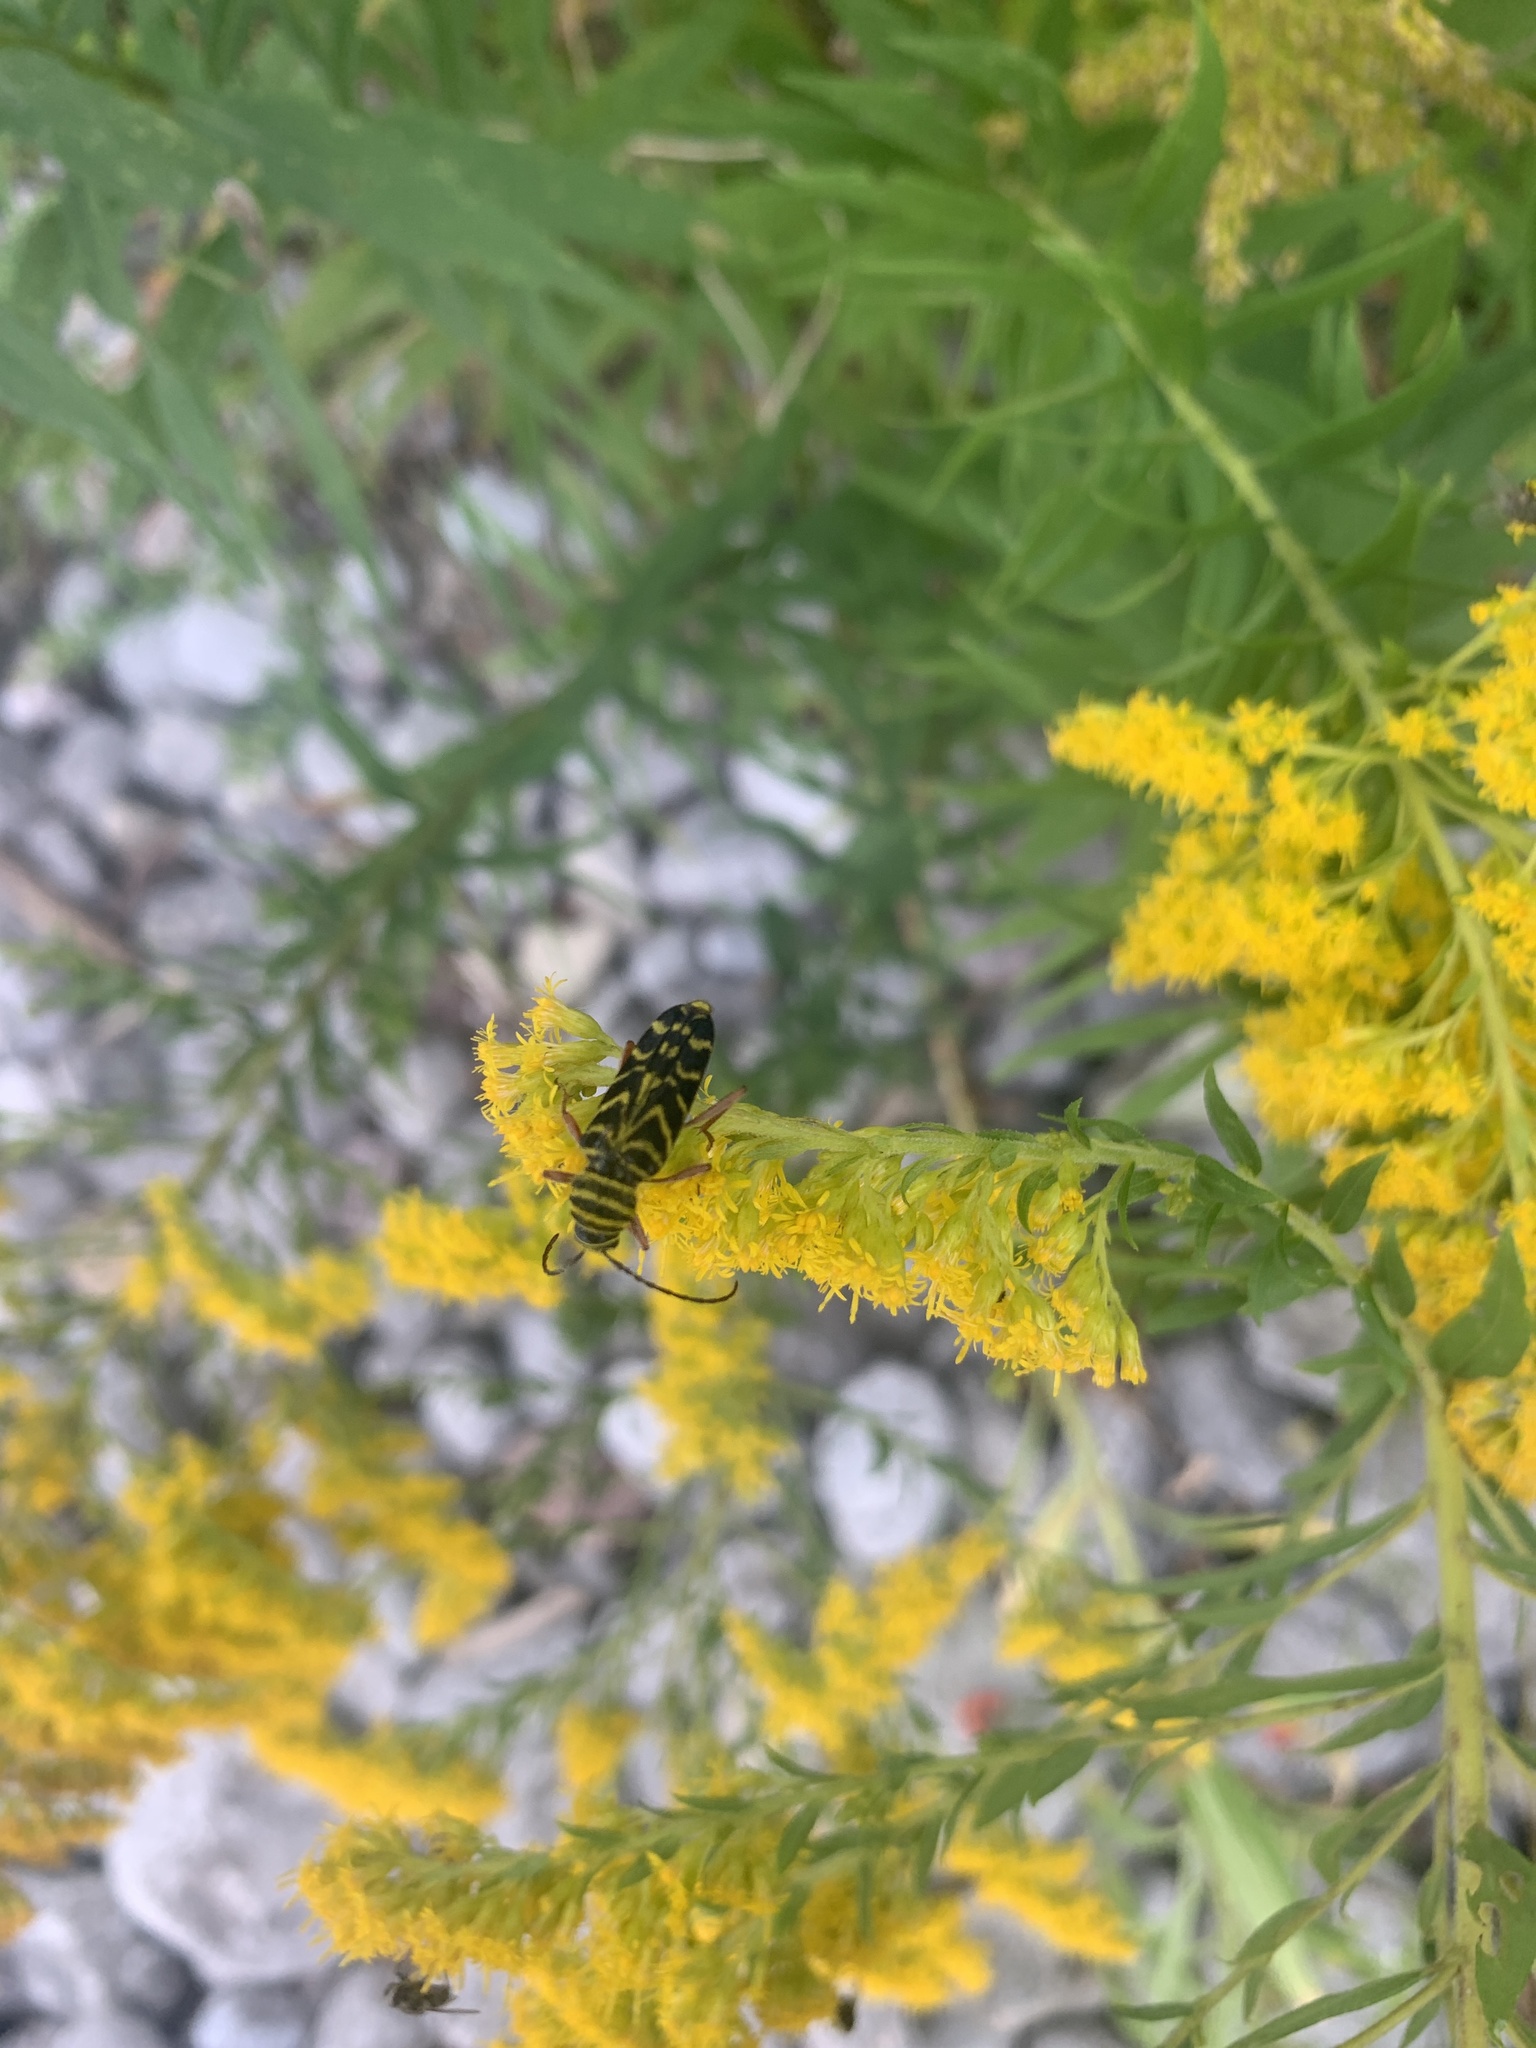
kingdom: Animalia
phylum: Arthropoda
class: Insecta
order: Coleoptera
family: Cerambycidae
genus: Megacyllene
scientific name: Megacyllene robiniae
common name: Locust borer
